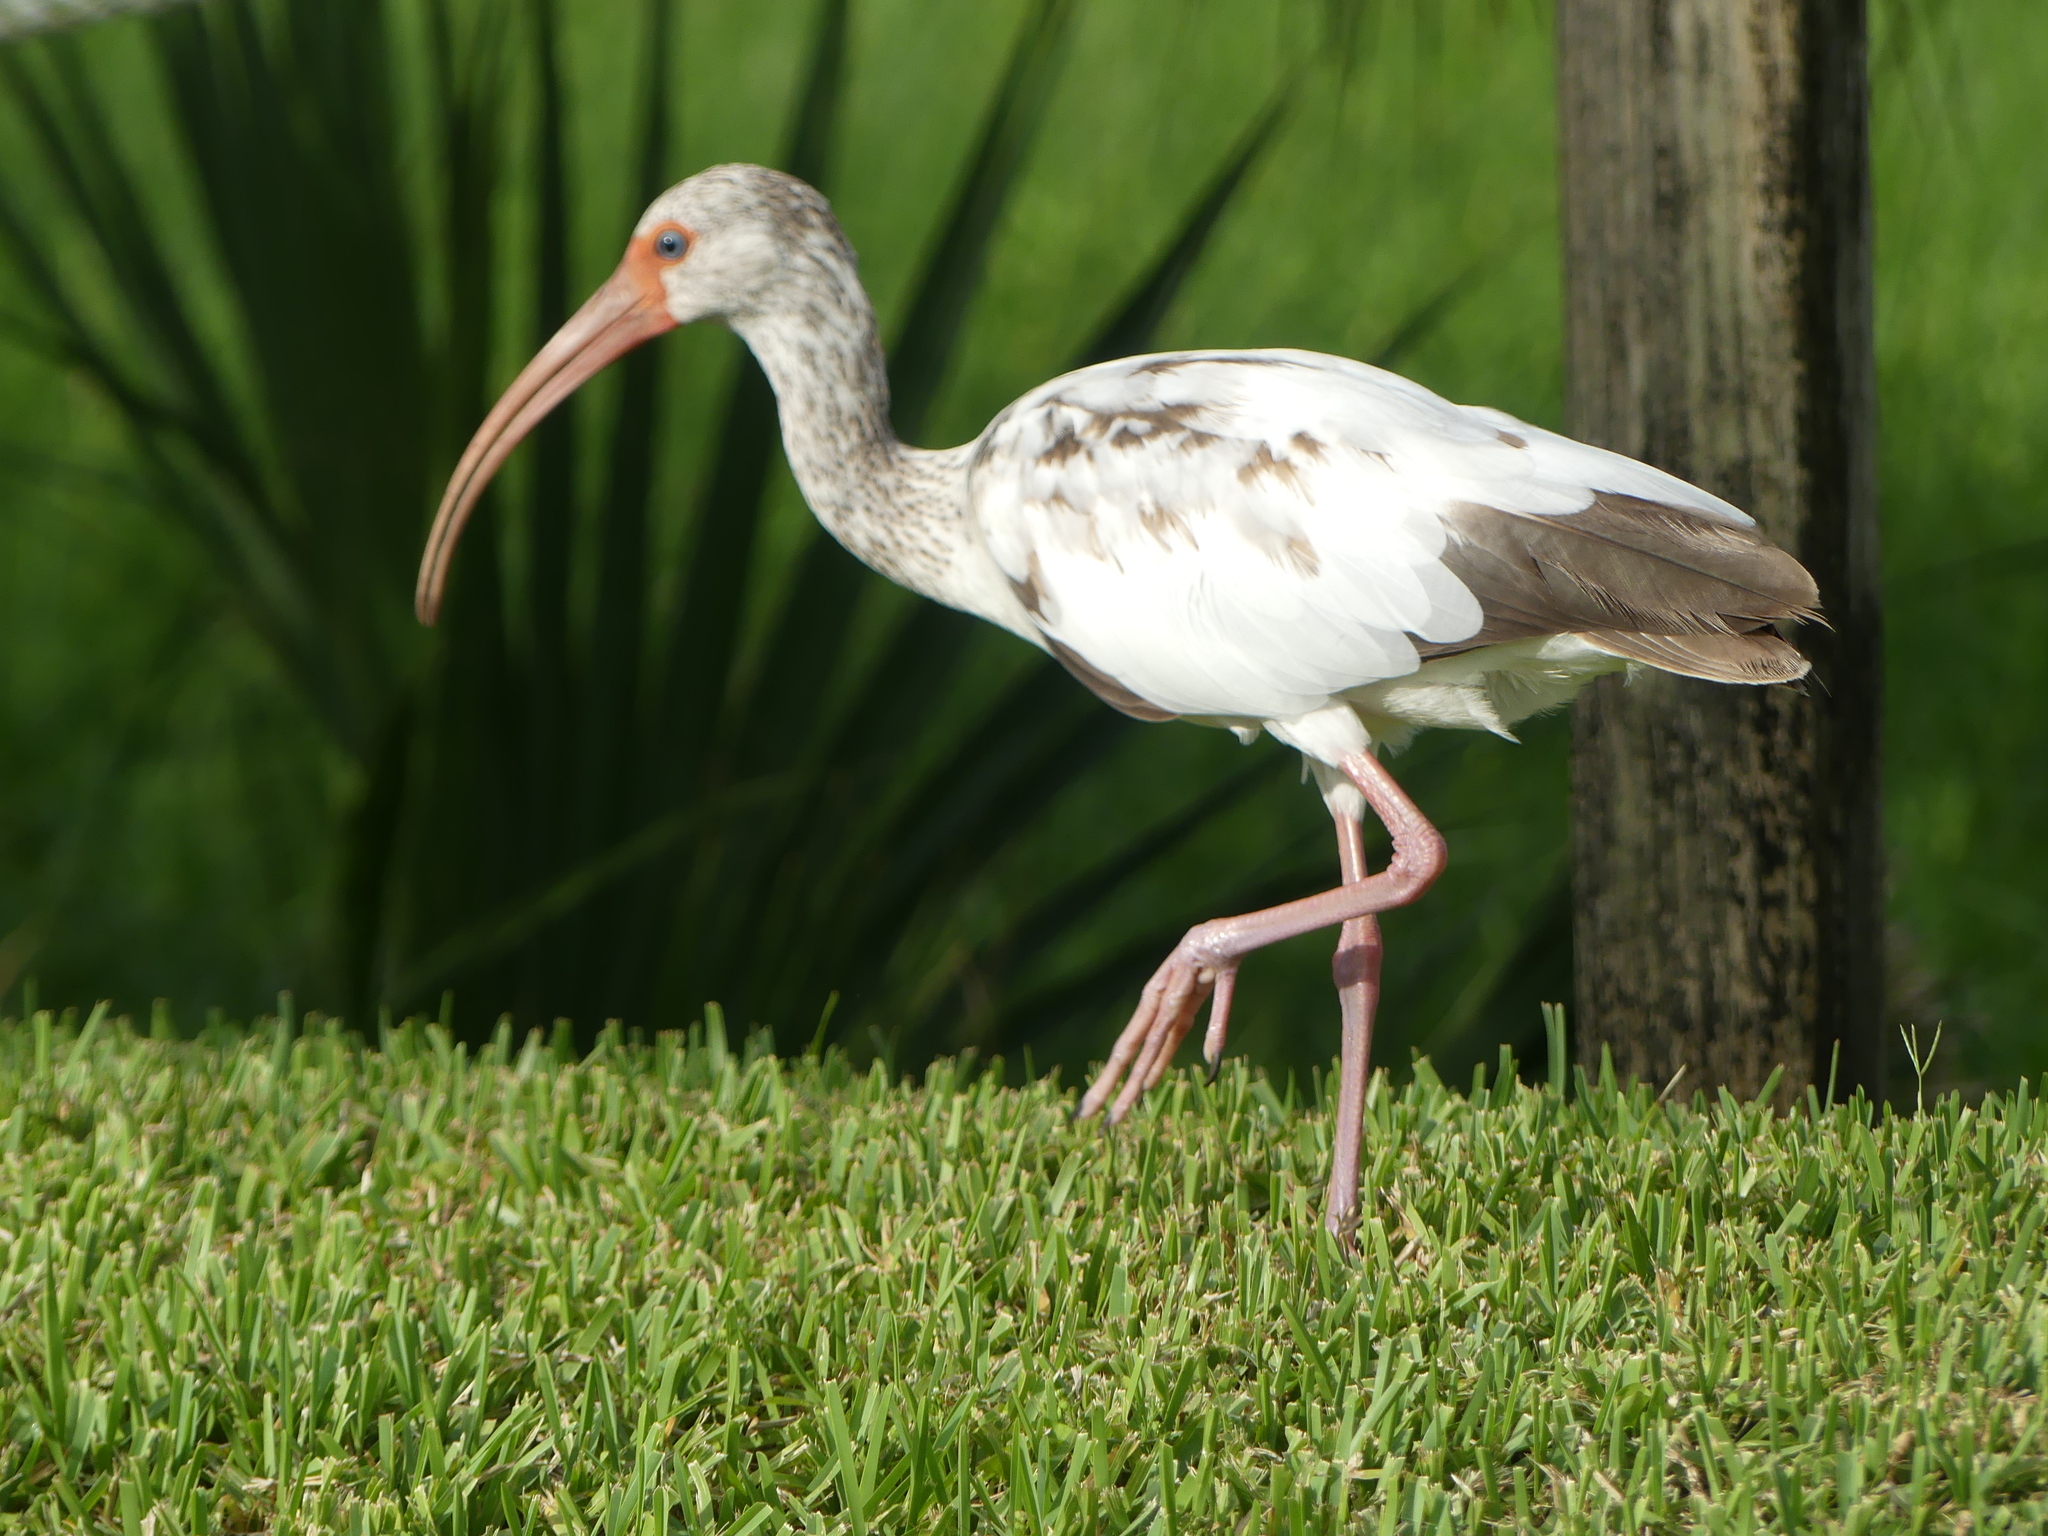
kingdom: Animalia
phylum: Chordata
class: Aves
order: Pelecaniformes
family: Threskiornithidae
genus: Eudocimus
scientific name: Eudocimus albus
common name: White ibis
